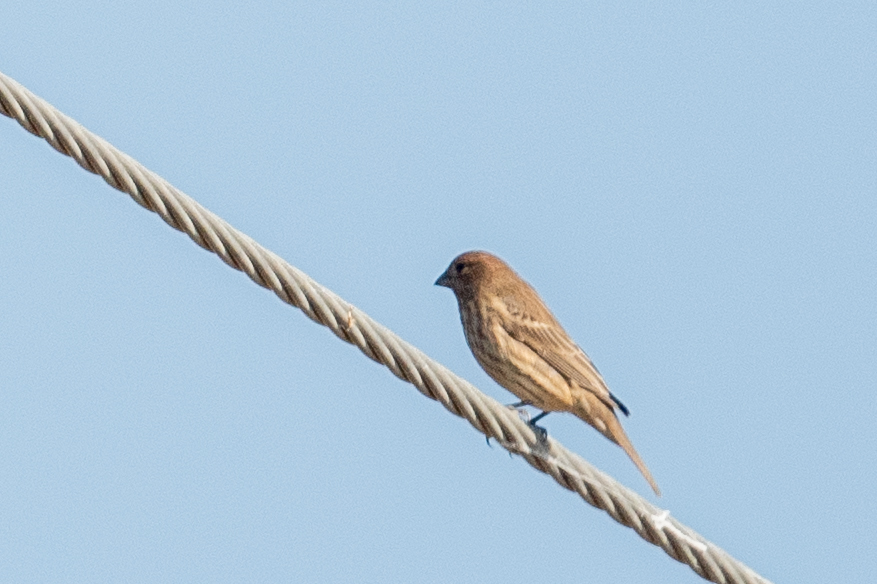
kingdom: Animalia
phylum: Chordata
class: Aves
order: Passeriformes
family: Fringillidae
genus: Haemorhous
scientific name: Haemorhous mexicanus
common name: House finch
